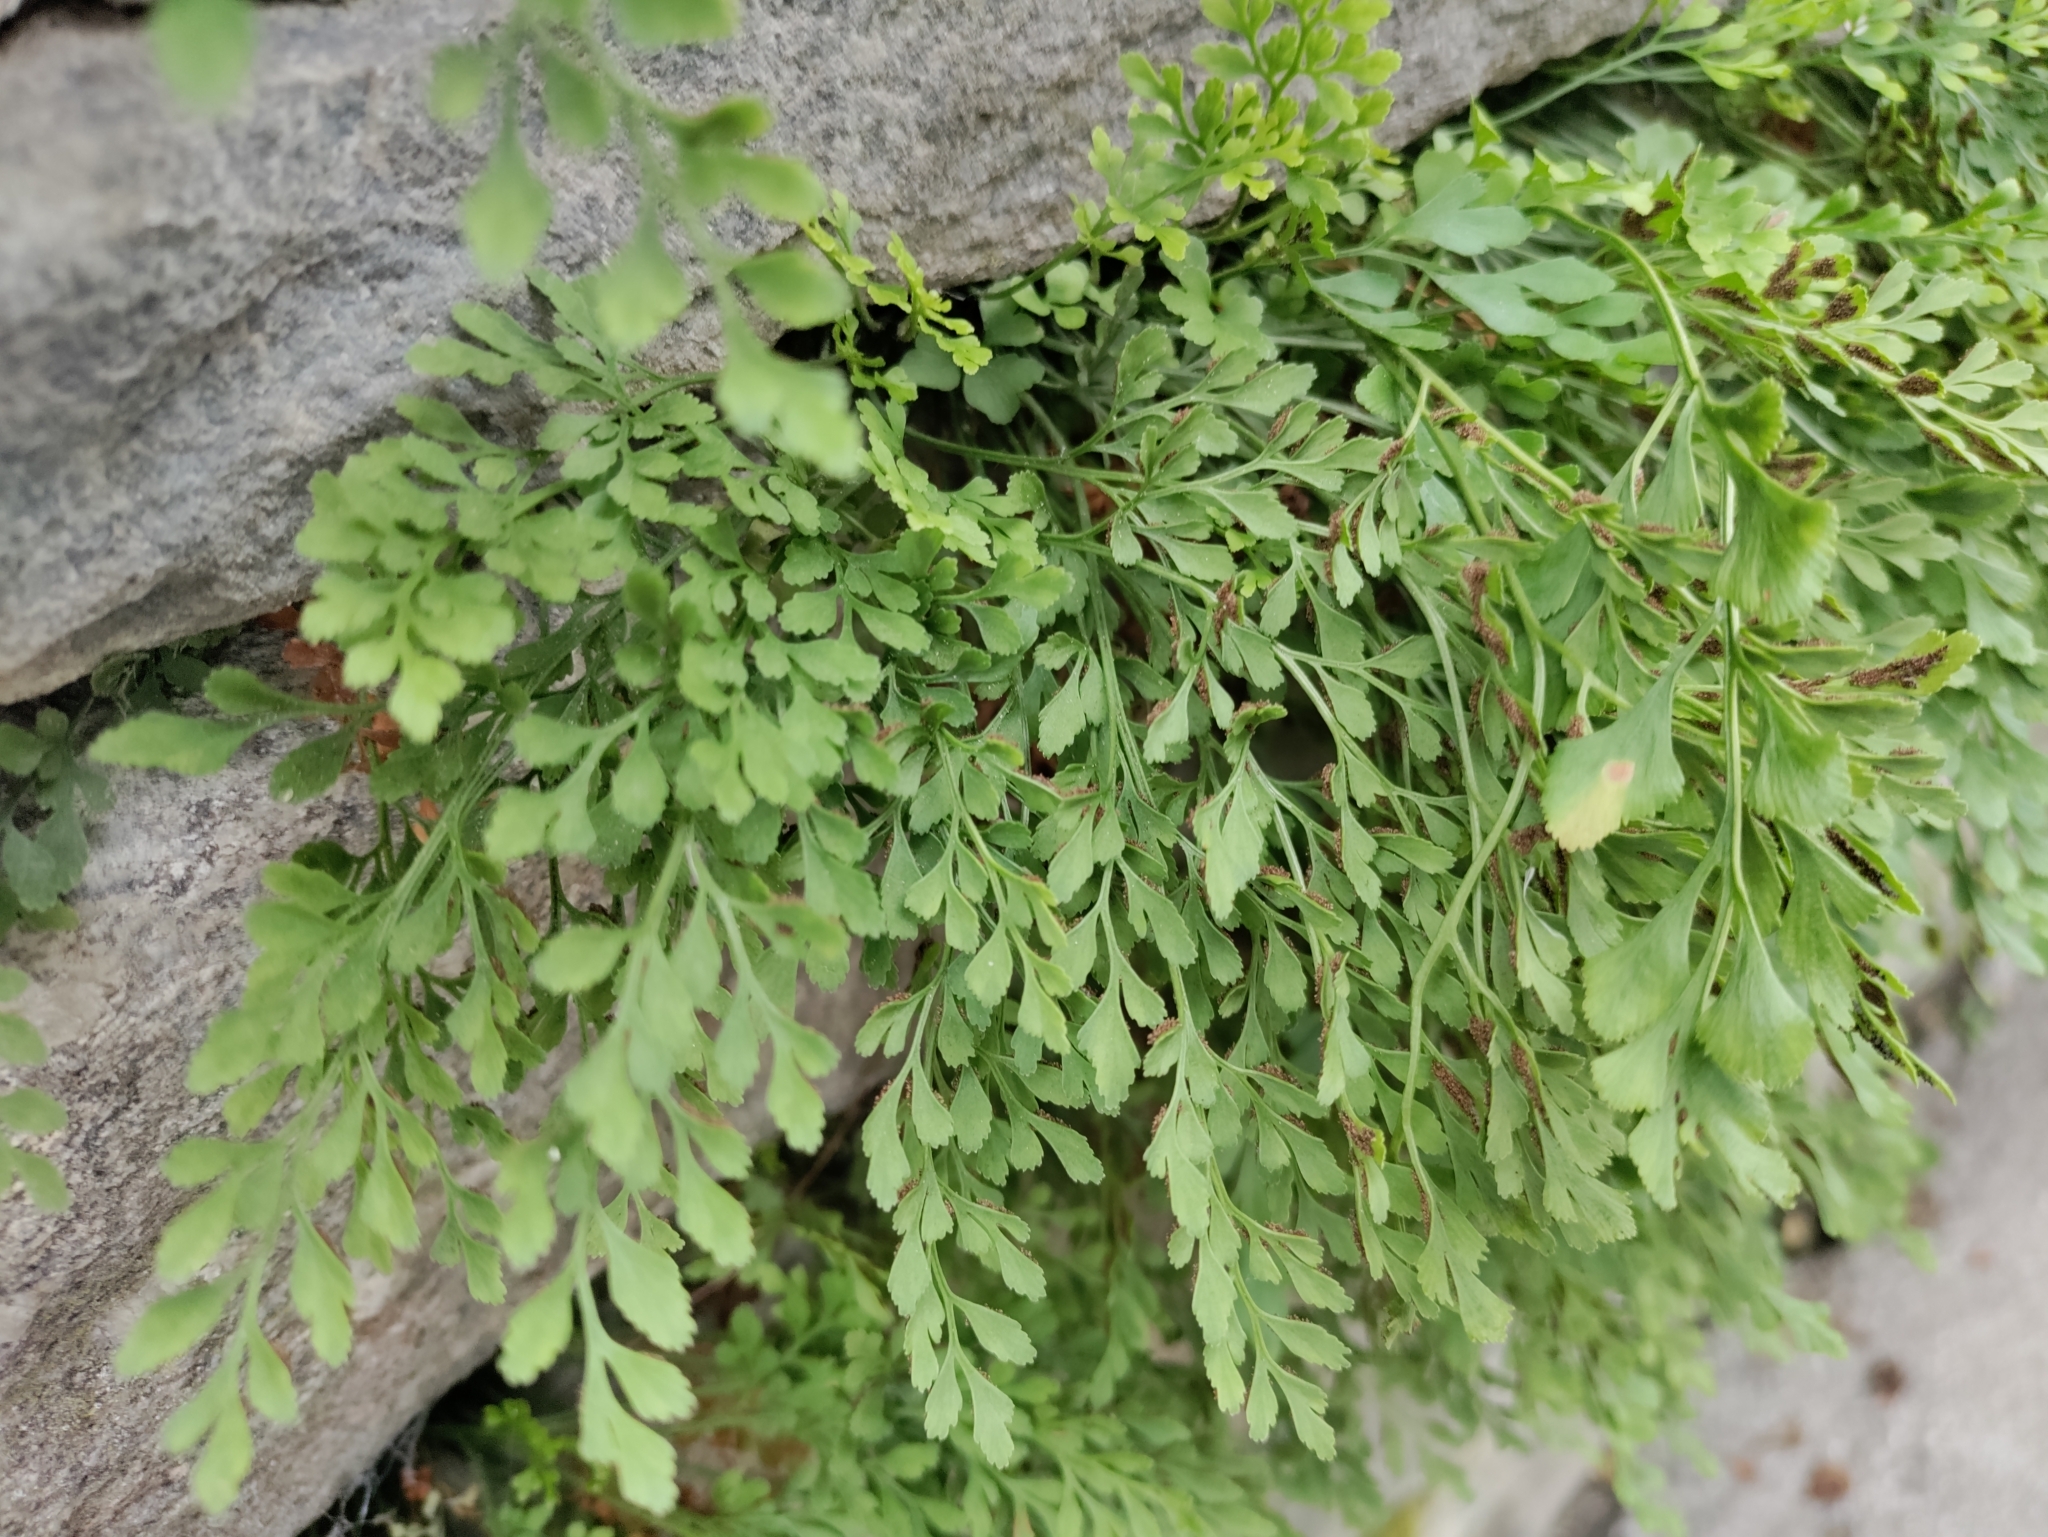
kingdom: Plantae
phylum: Tracheophyta
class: Polypodiopsida
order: Polypodiales
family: Aspleniaceae
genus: Asplenium
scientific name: Asplenium ruta-muraria
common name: Wall-rue
